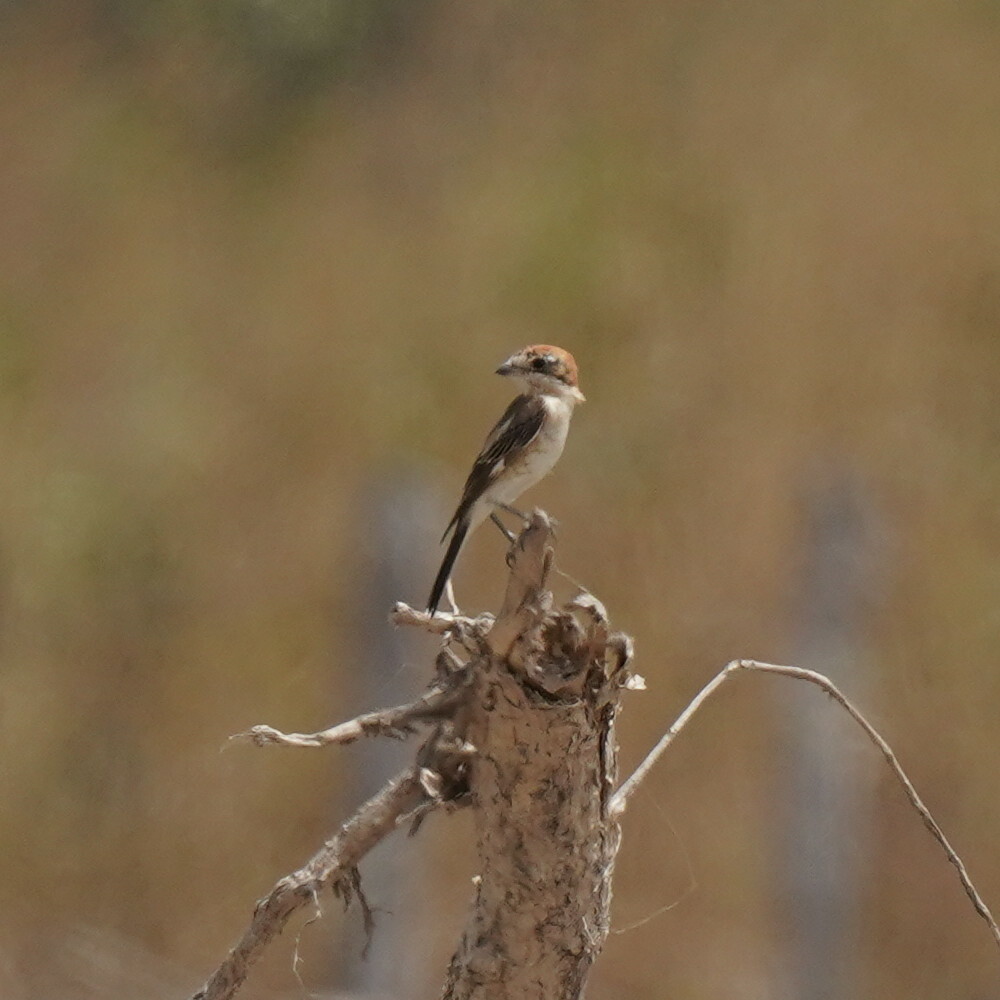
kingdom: Animalia
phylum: Chordata
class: Aves
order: Passeriformes
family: Laniidae
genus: Lanius
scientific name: Lanius senator
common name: Woodchat shrike
